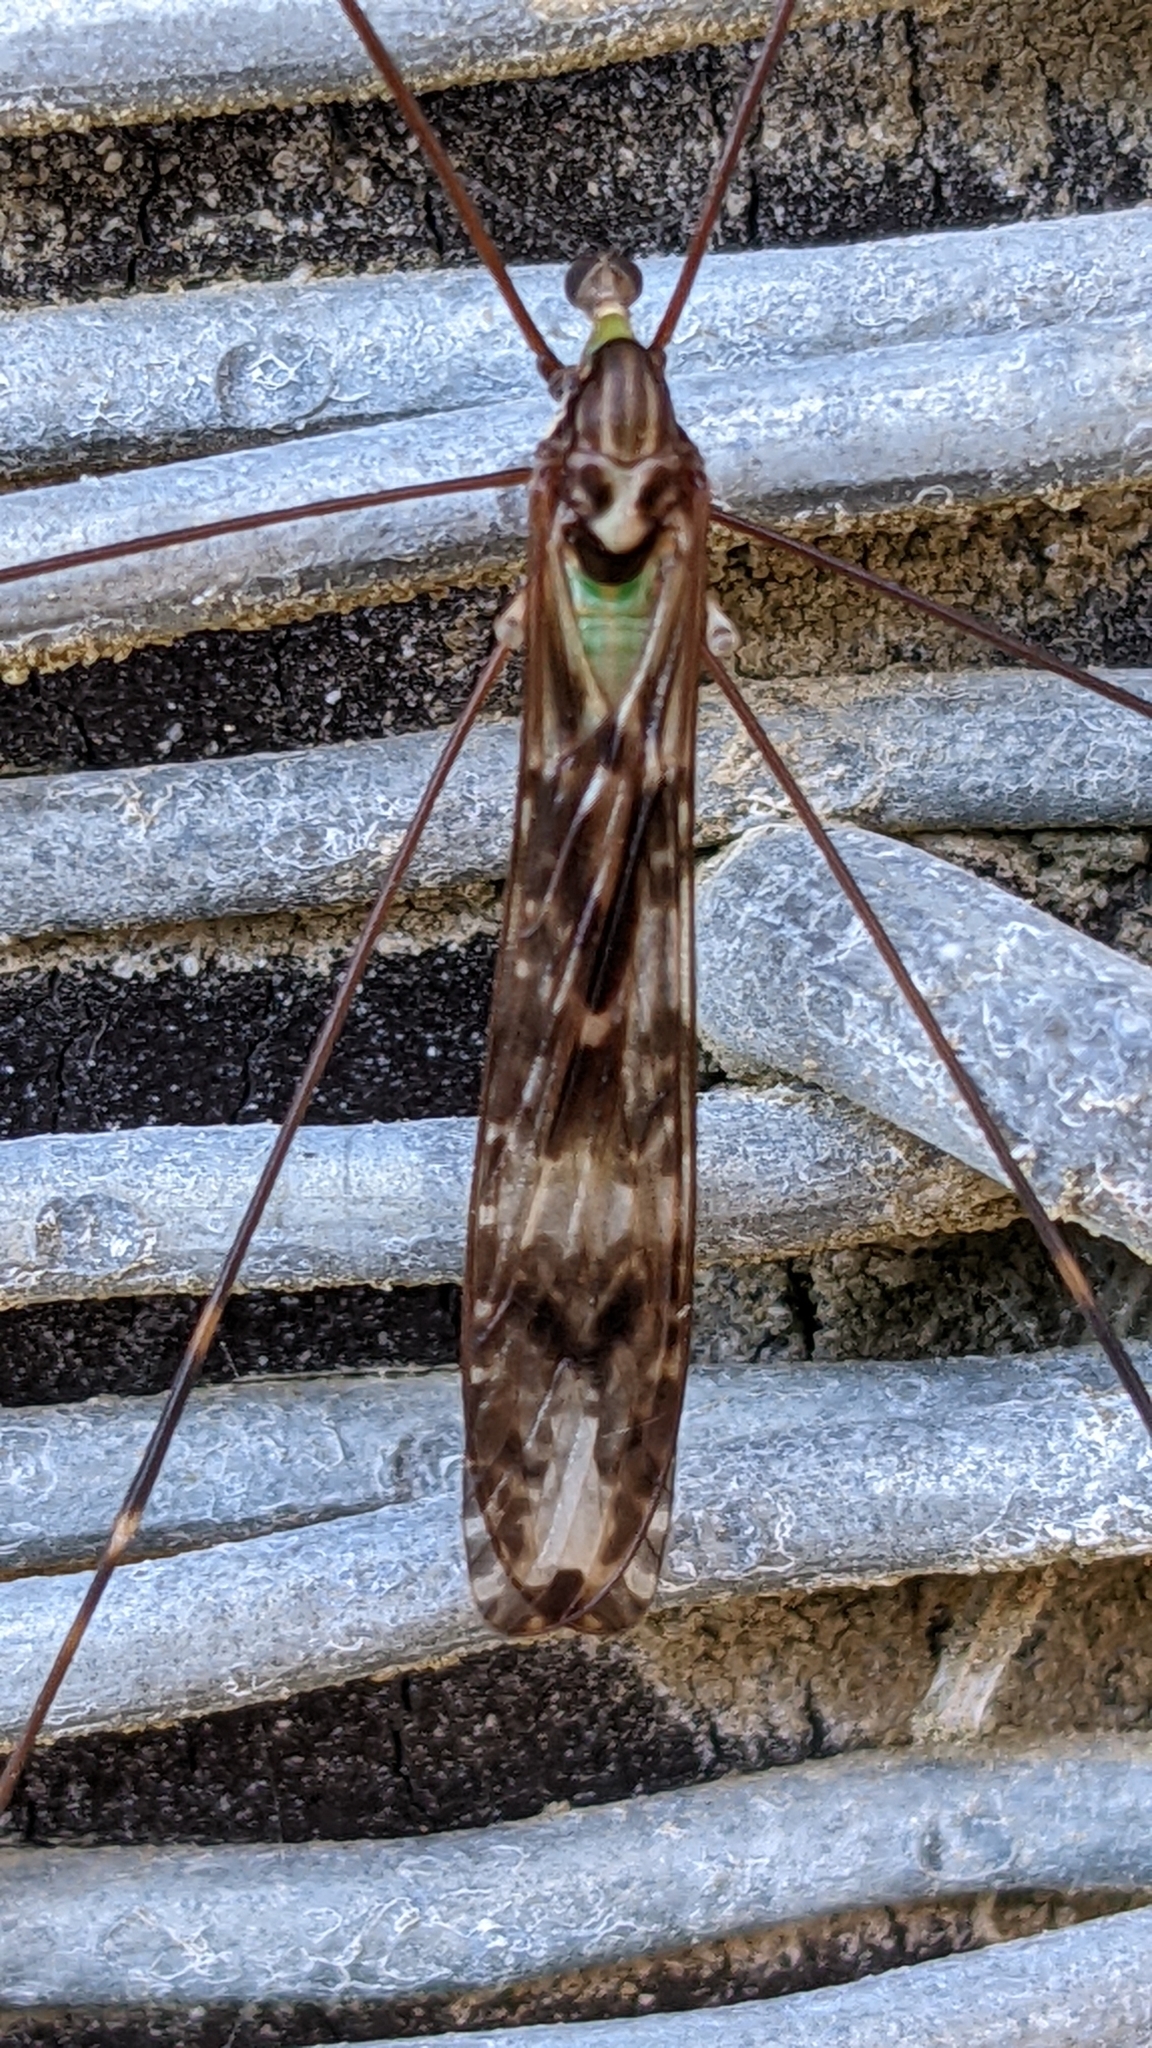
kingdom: Animalia
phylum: Arthropoda
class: Insecta
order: Diptera
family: Limoniidae
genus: Discobola
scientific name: Discobola dohrni
